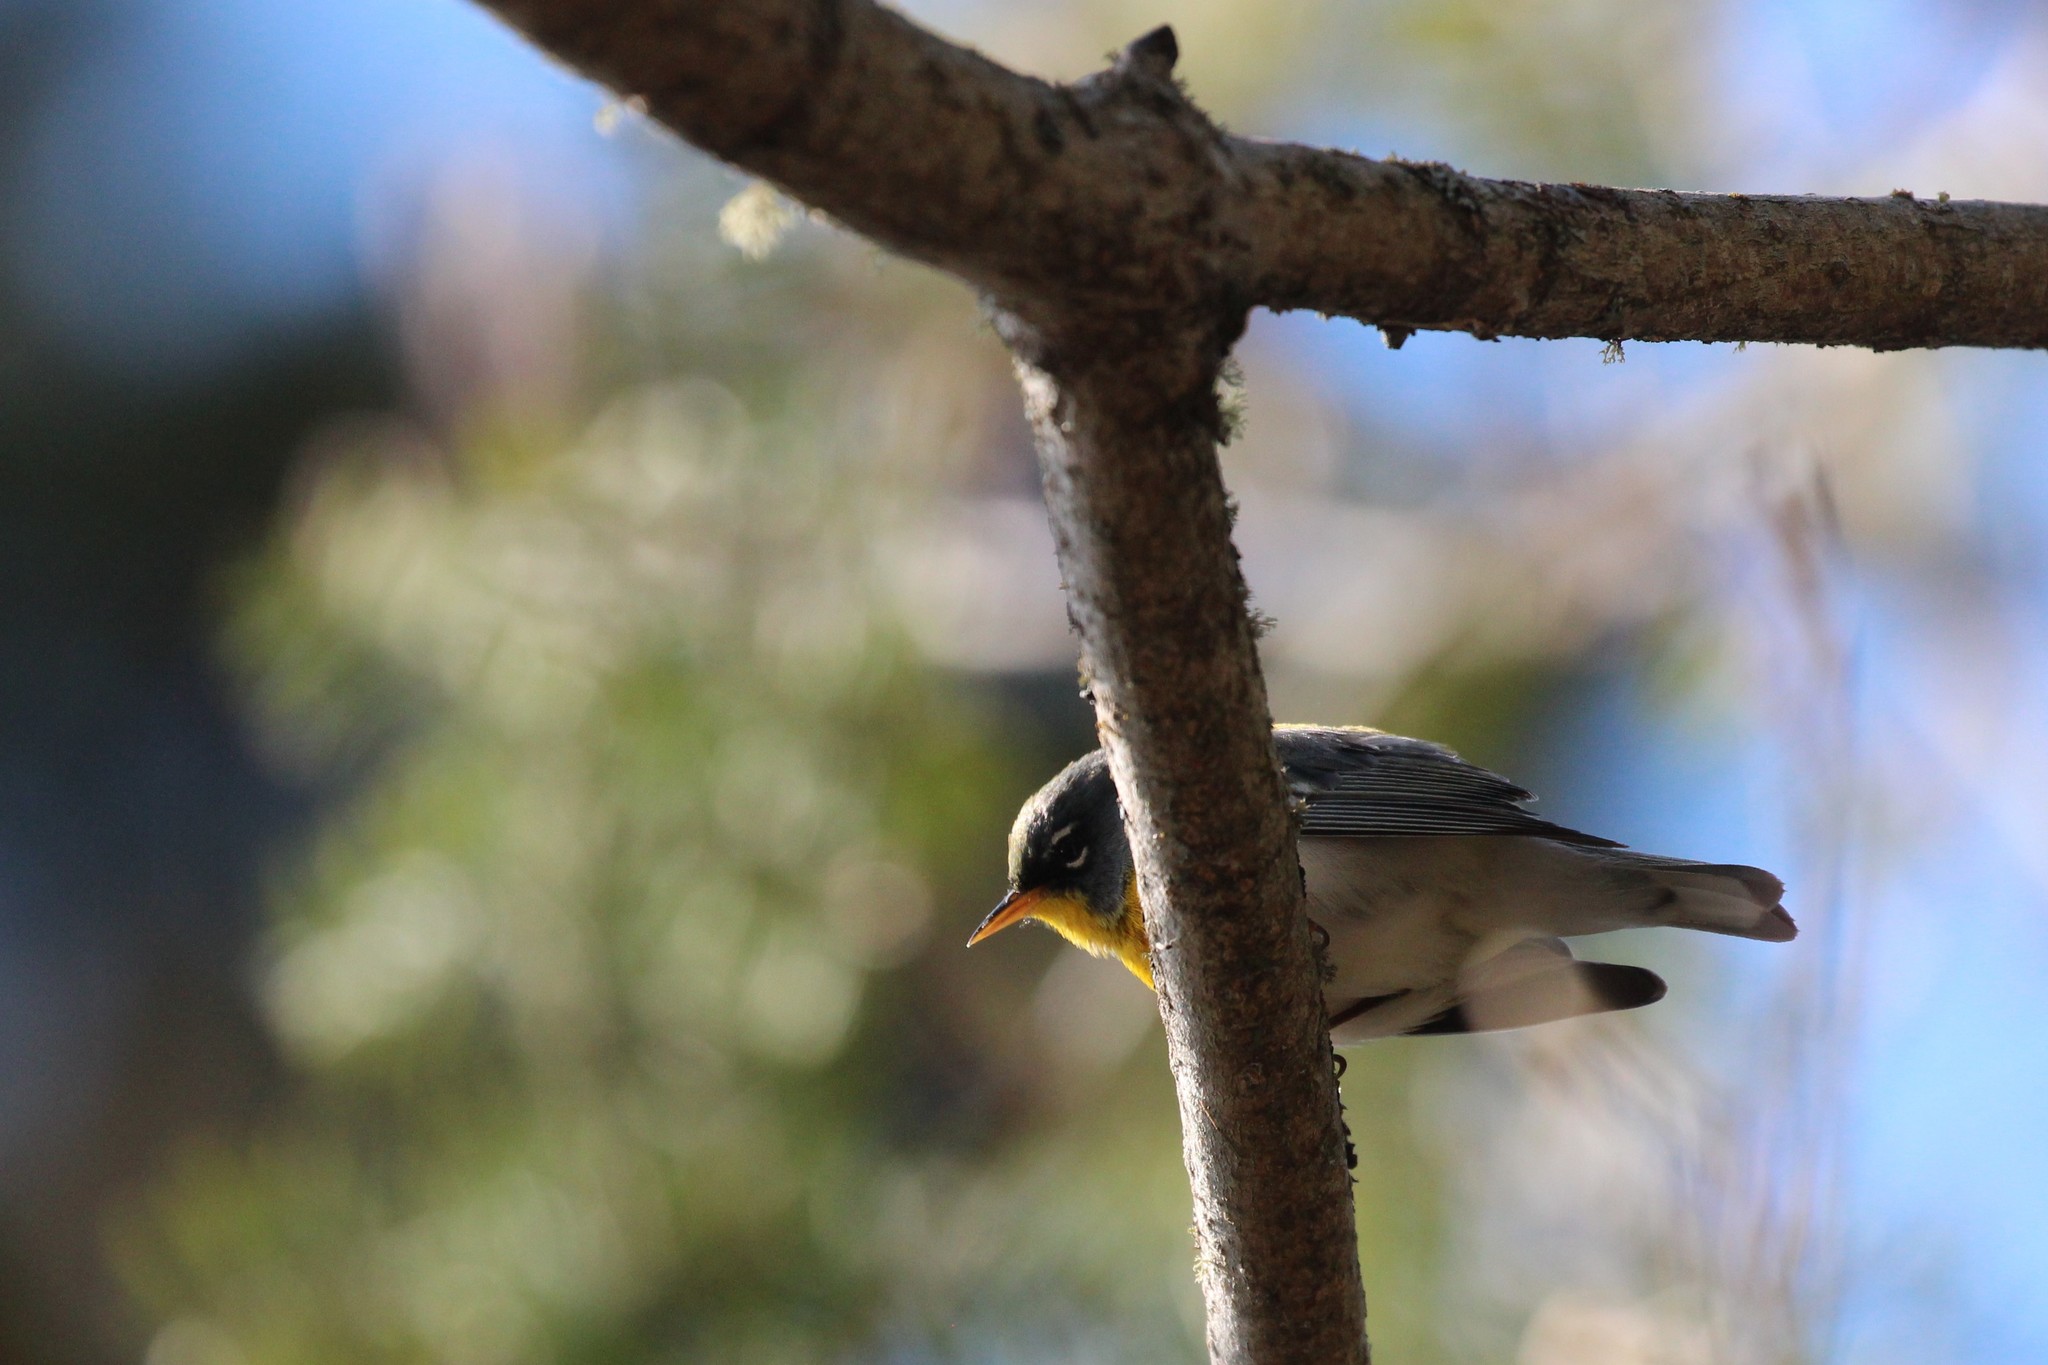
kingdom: Animalia
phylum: Chordata
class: Aves
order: Passeriformes
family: Parulidae
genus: Setophaga
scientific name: Setophaga americana
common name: Northern parula
